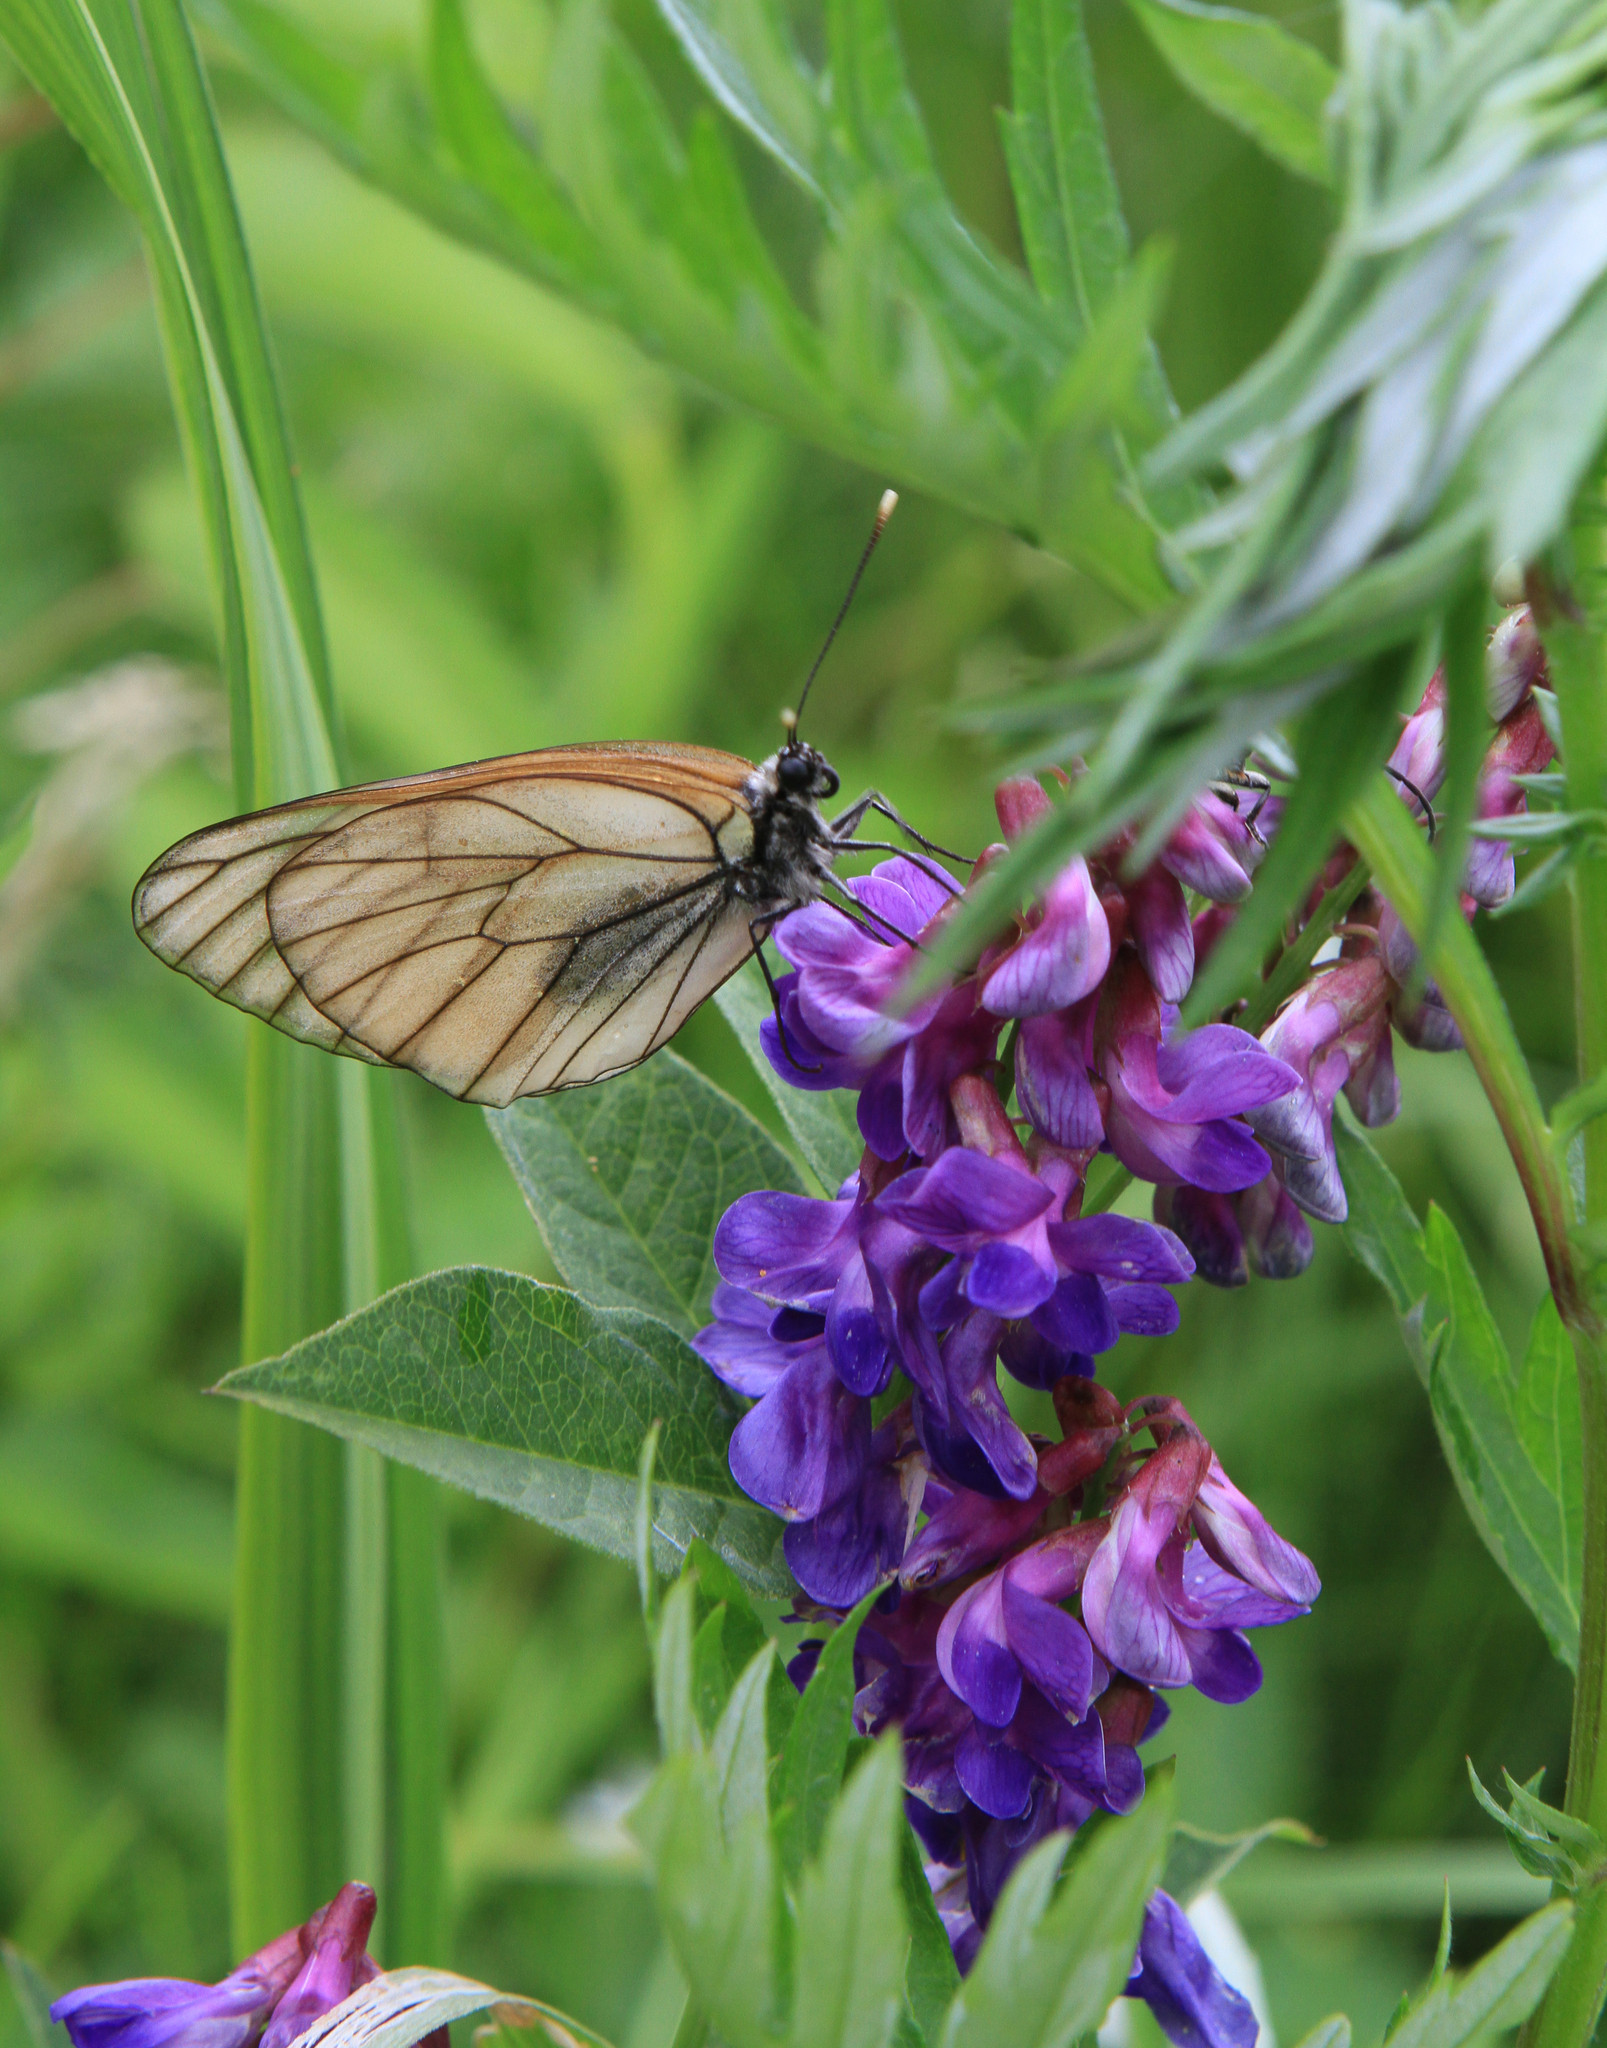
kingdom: Animalia
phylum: Arthropoda
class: Insecta
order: Lepidoptera
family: Pieridae
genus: Aporia
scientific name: Aporia crataegi
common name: Black-veined white
